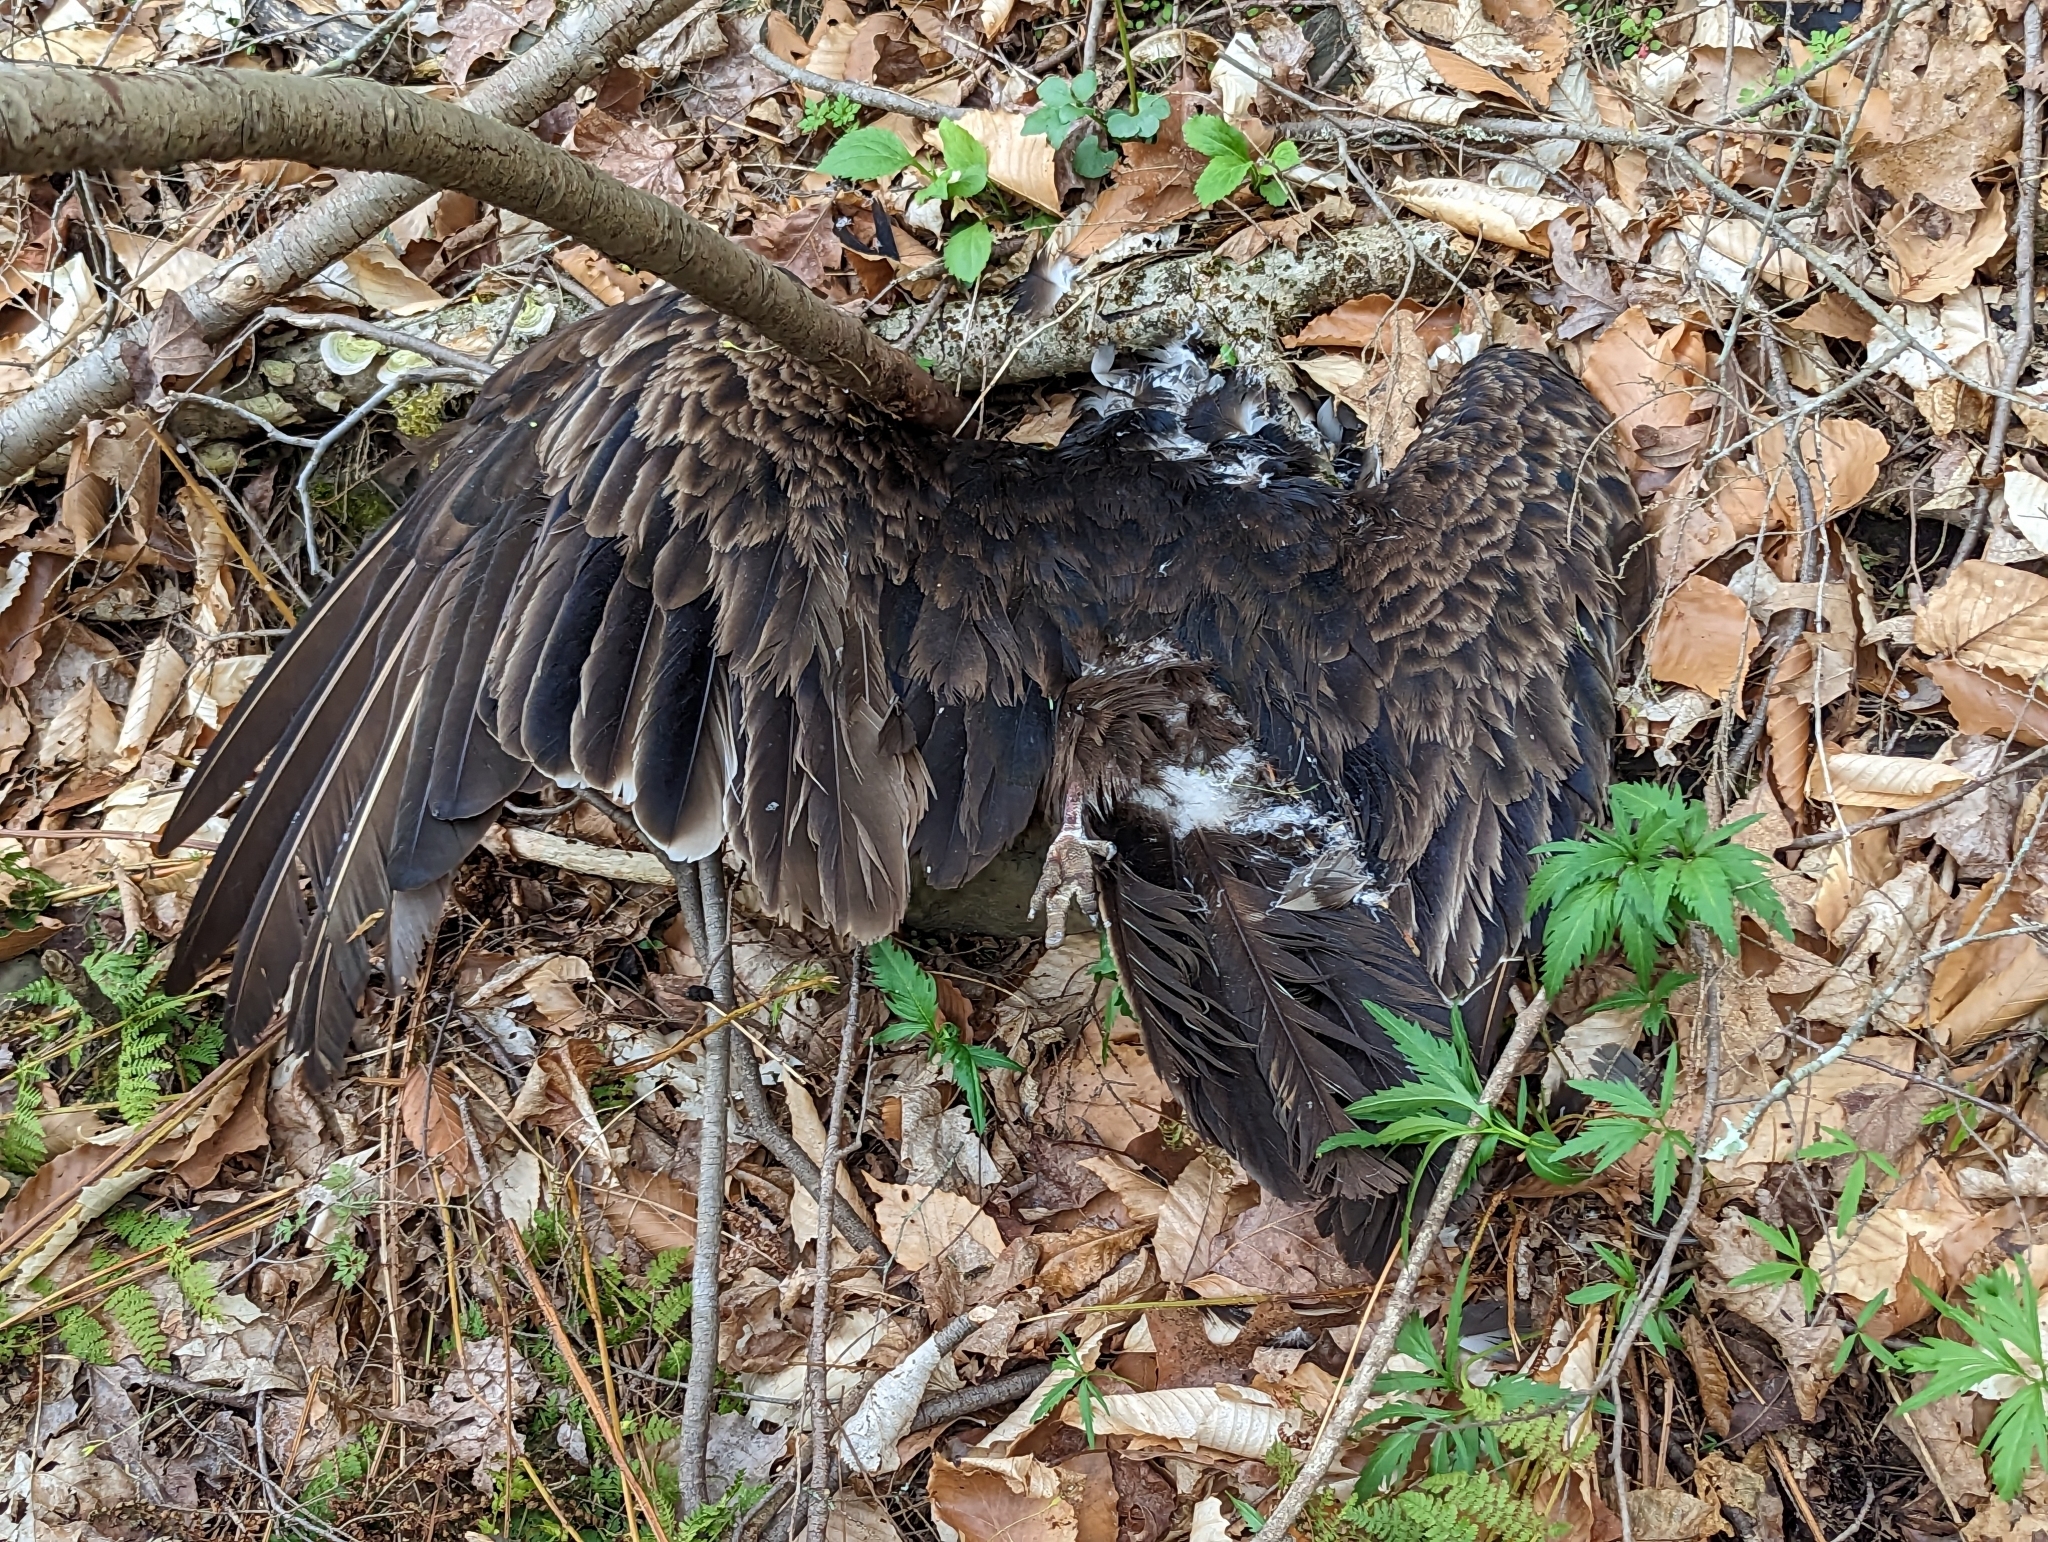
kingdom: Animalia
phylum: Chordata
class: Aves
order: Accipitriformes
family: Cathartidae
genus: Cathartes
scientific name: Cathartes aura
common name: Turkey vulture
